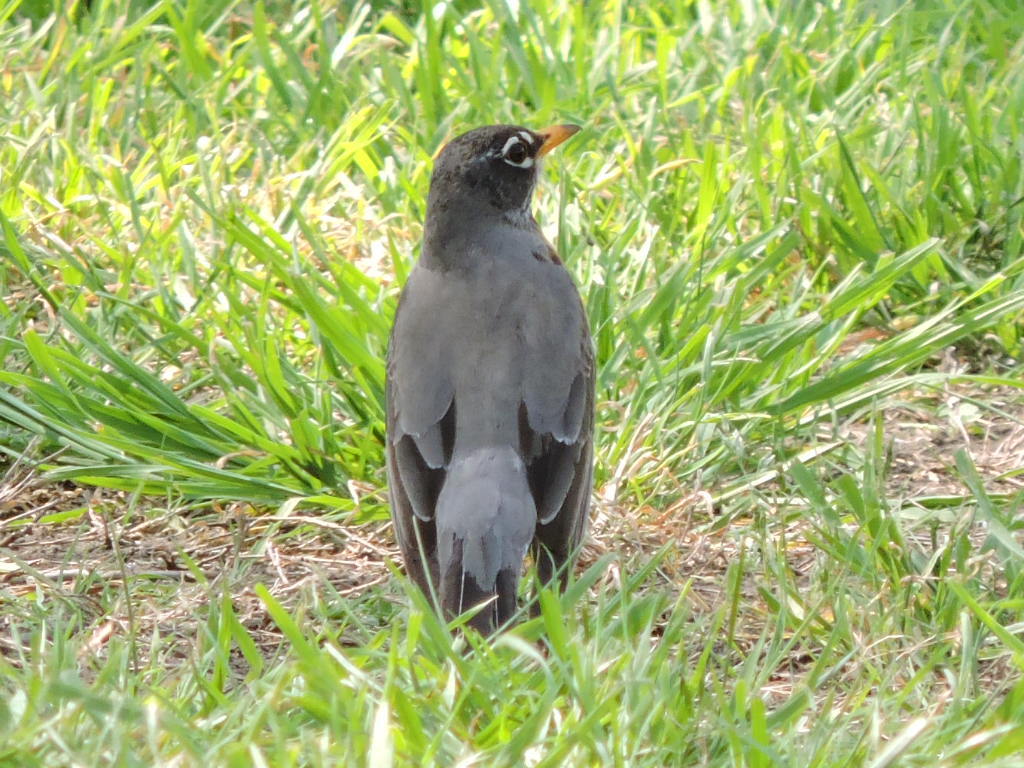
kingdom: Animalia
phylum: Chordata
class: Aves
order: Passeriformes
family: Turdidae
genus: Turdus
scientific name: Turdus migratorius
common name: American robin
